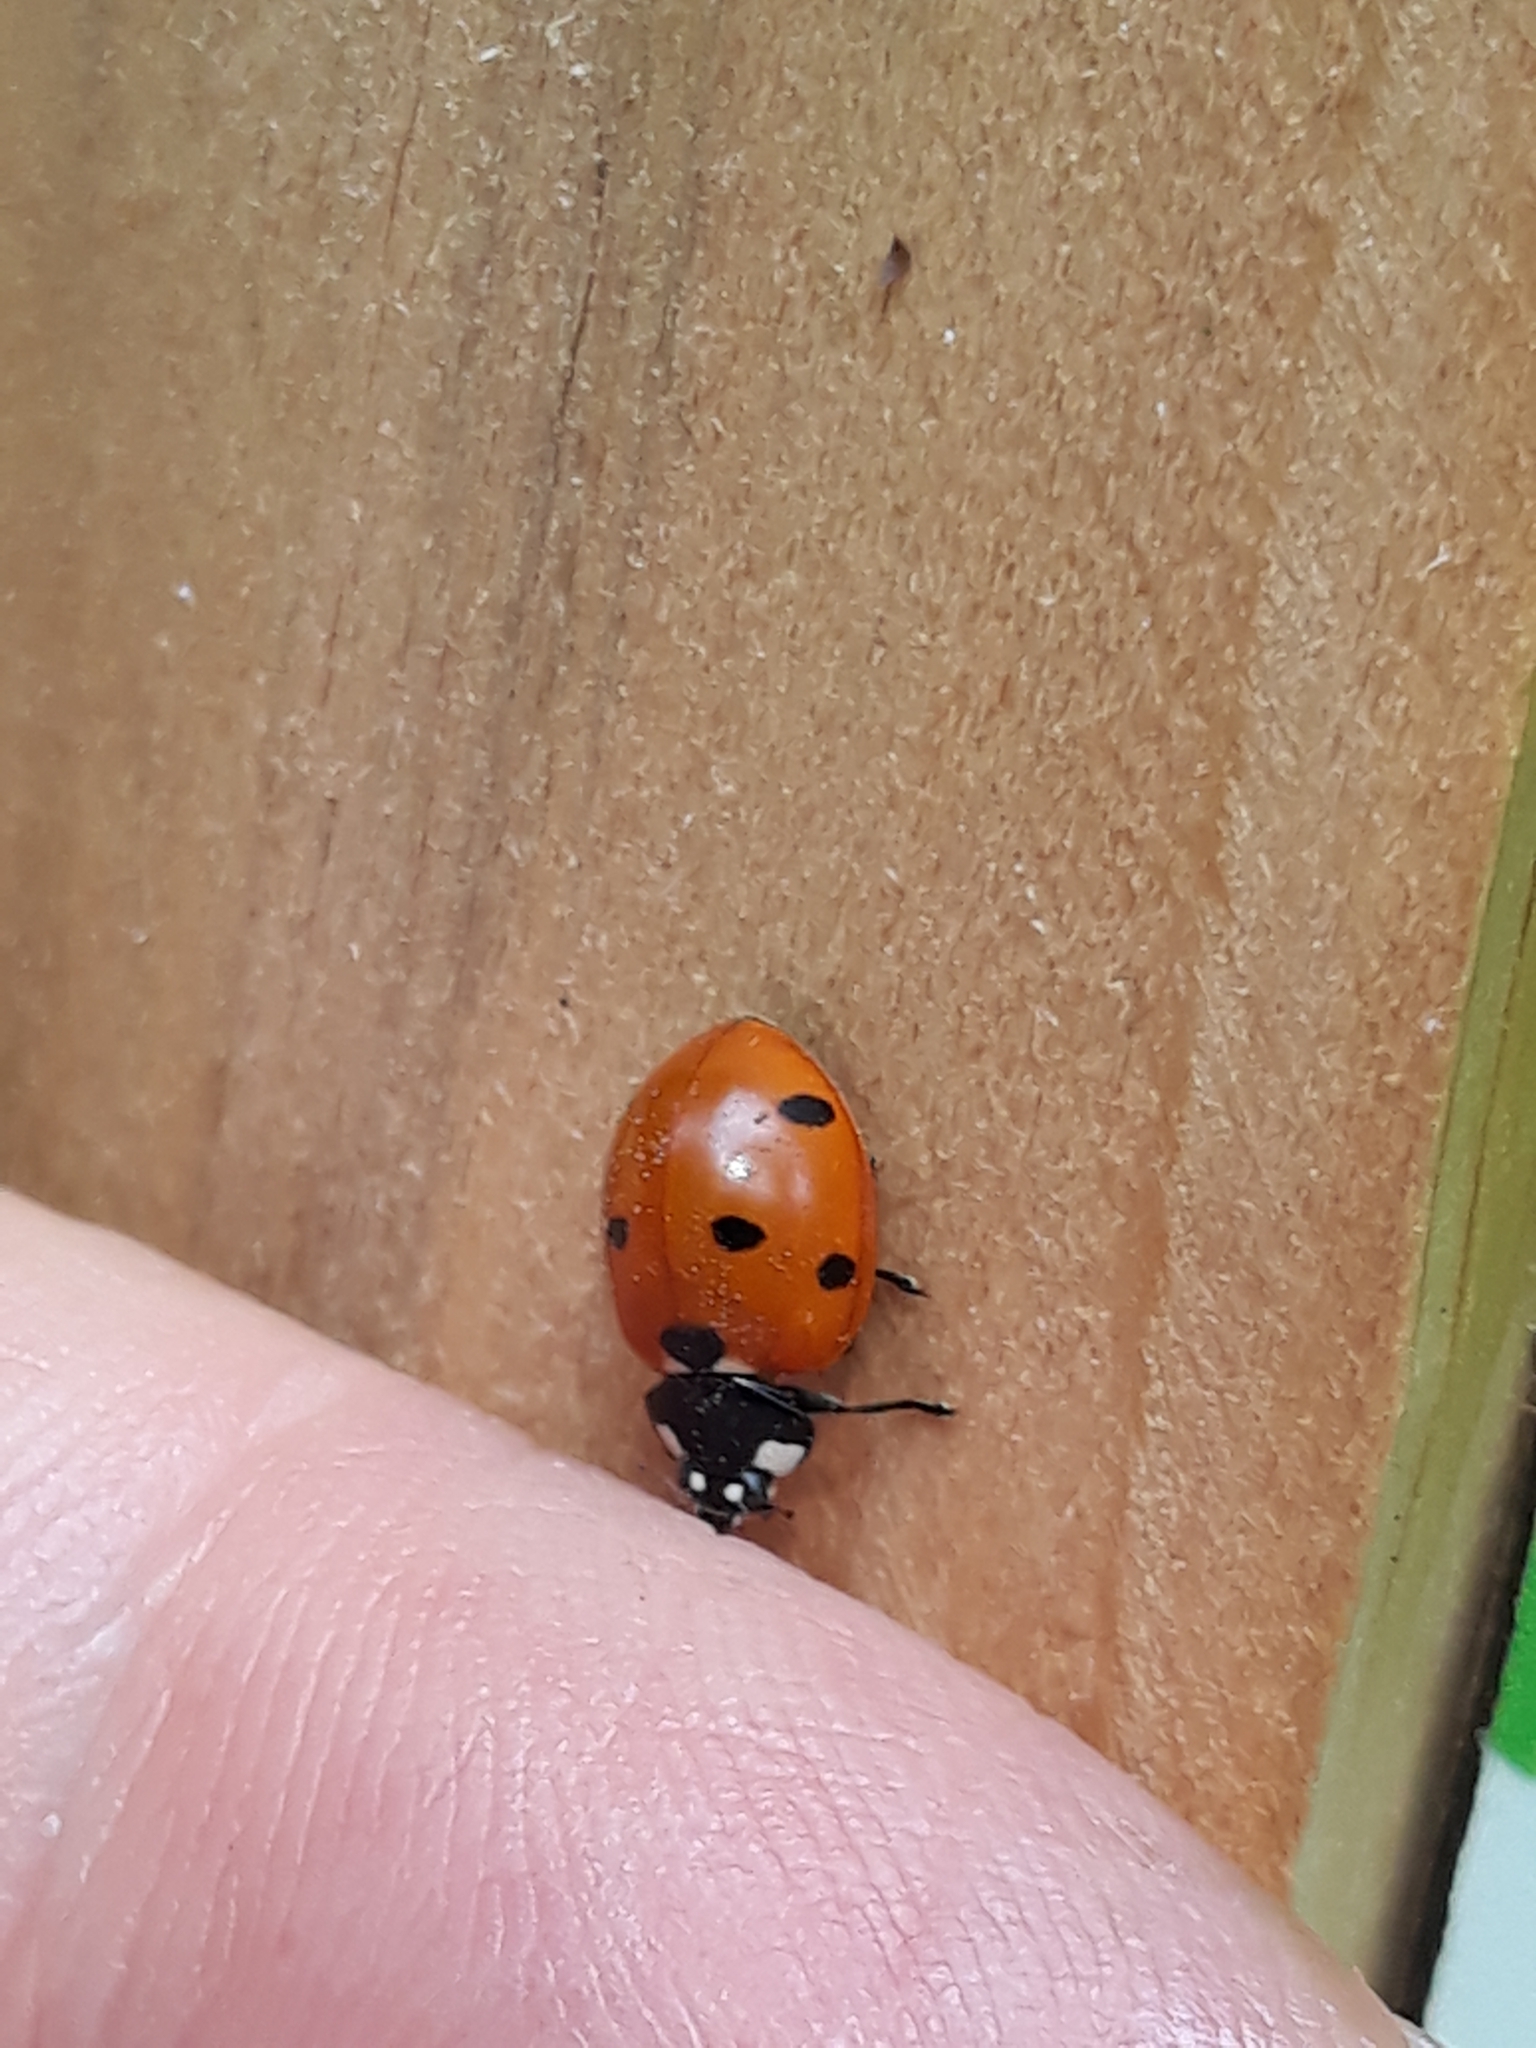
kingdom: Animalia
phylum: Arthropoda
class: Insecta
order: Coleoptera
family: Coccinellidae
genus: Coccinella
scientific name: Coccinella septempunctata
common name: Sevenspotted lady beetle
